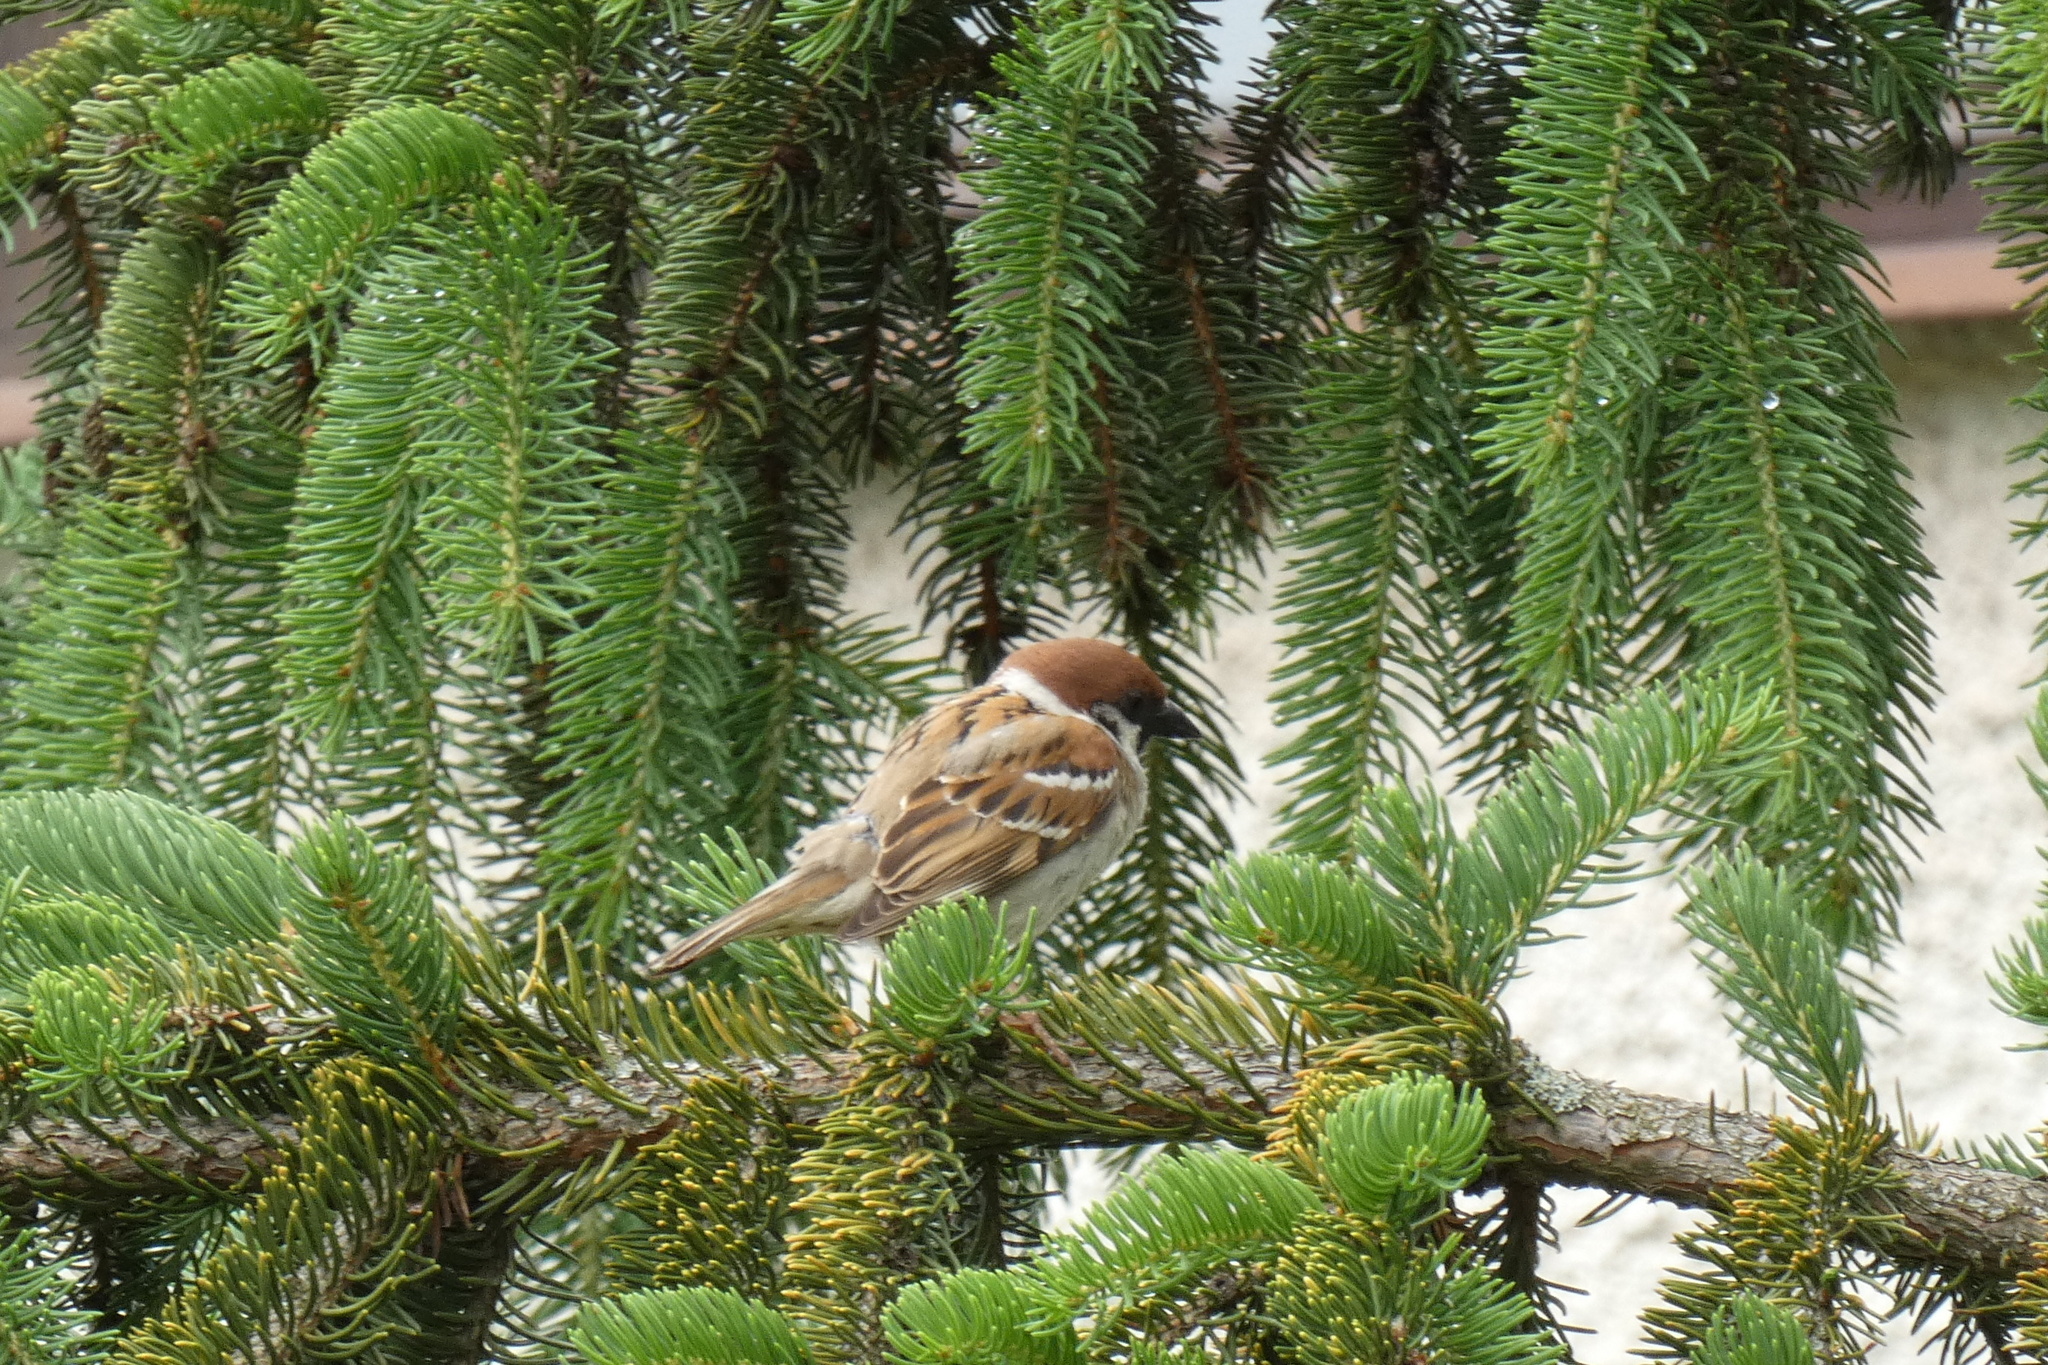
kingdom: Animalia
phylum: Chordata
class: Aves
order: Passeriformes
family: Passeridae
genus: Passer
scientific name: Passer montanus
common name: Eurasian tree sparrow
